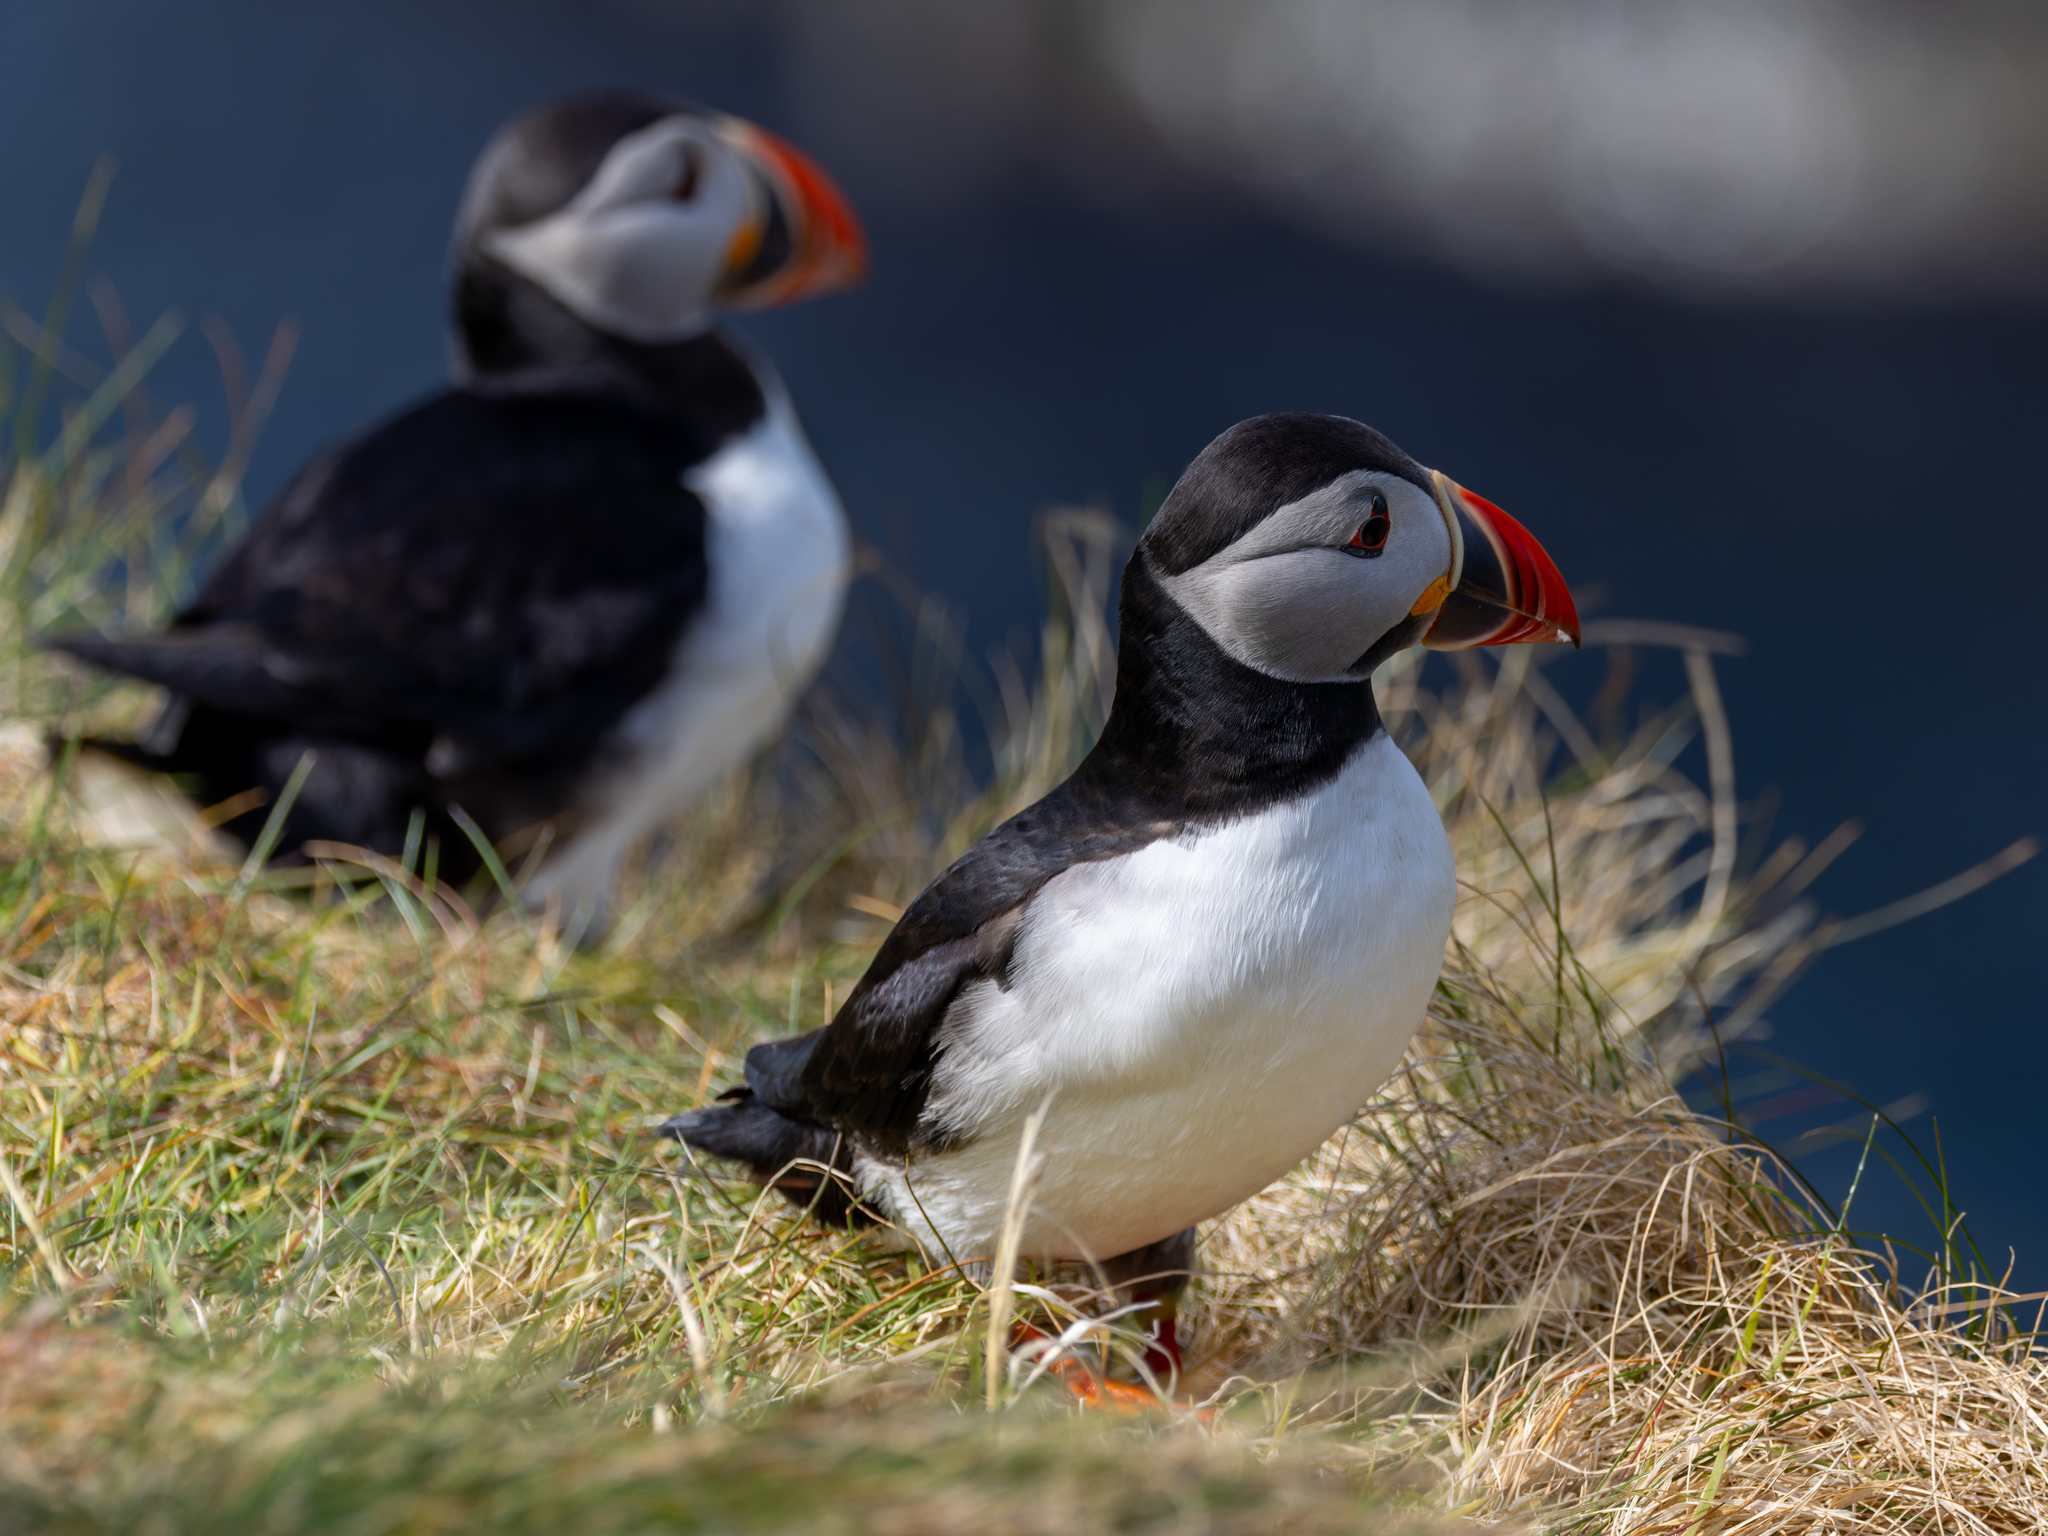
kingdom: Animalia
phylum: Chordata
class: Aves
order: Charadriiformes
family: Alcidae
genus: Fratercula
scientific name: Fratercula arctica
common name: Atlantic puffin
